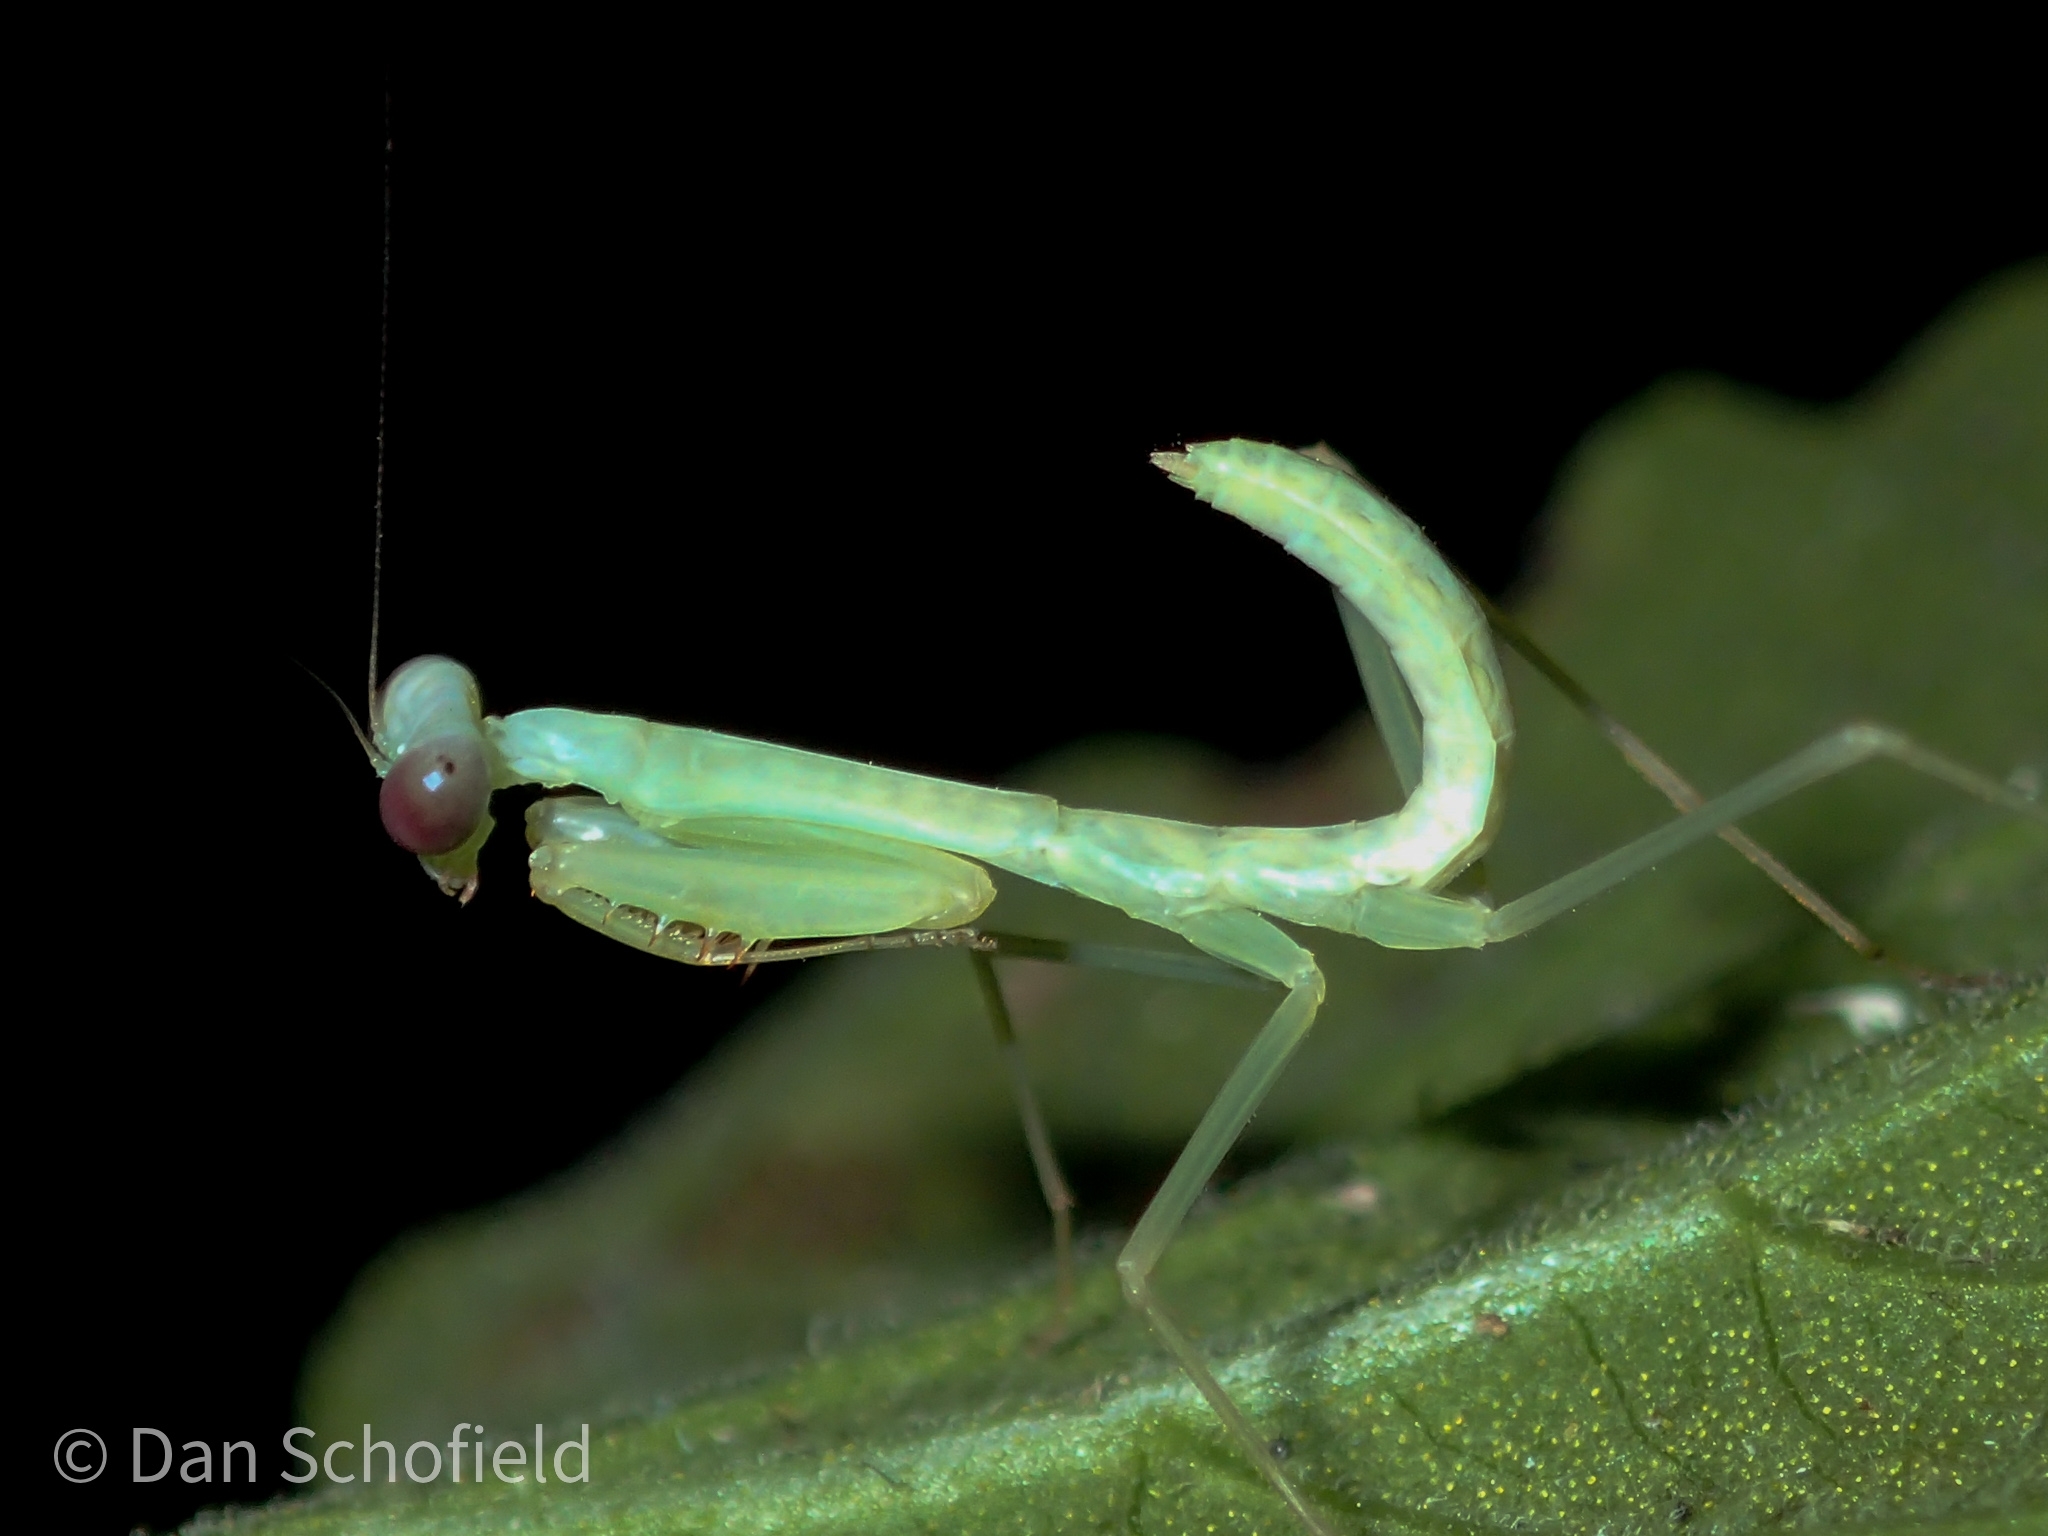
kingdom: Animalia
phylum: Arthropoda
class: Insecta
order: Mantodea
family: Mantidae
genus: Hierodula
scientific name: Hierodula purpurescens
